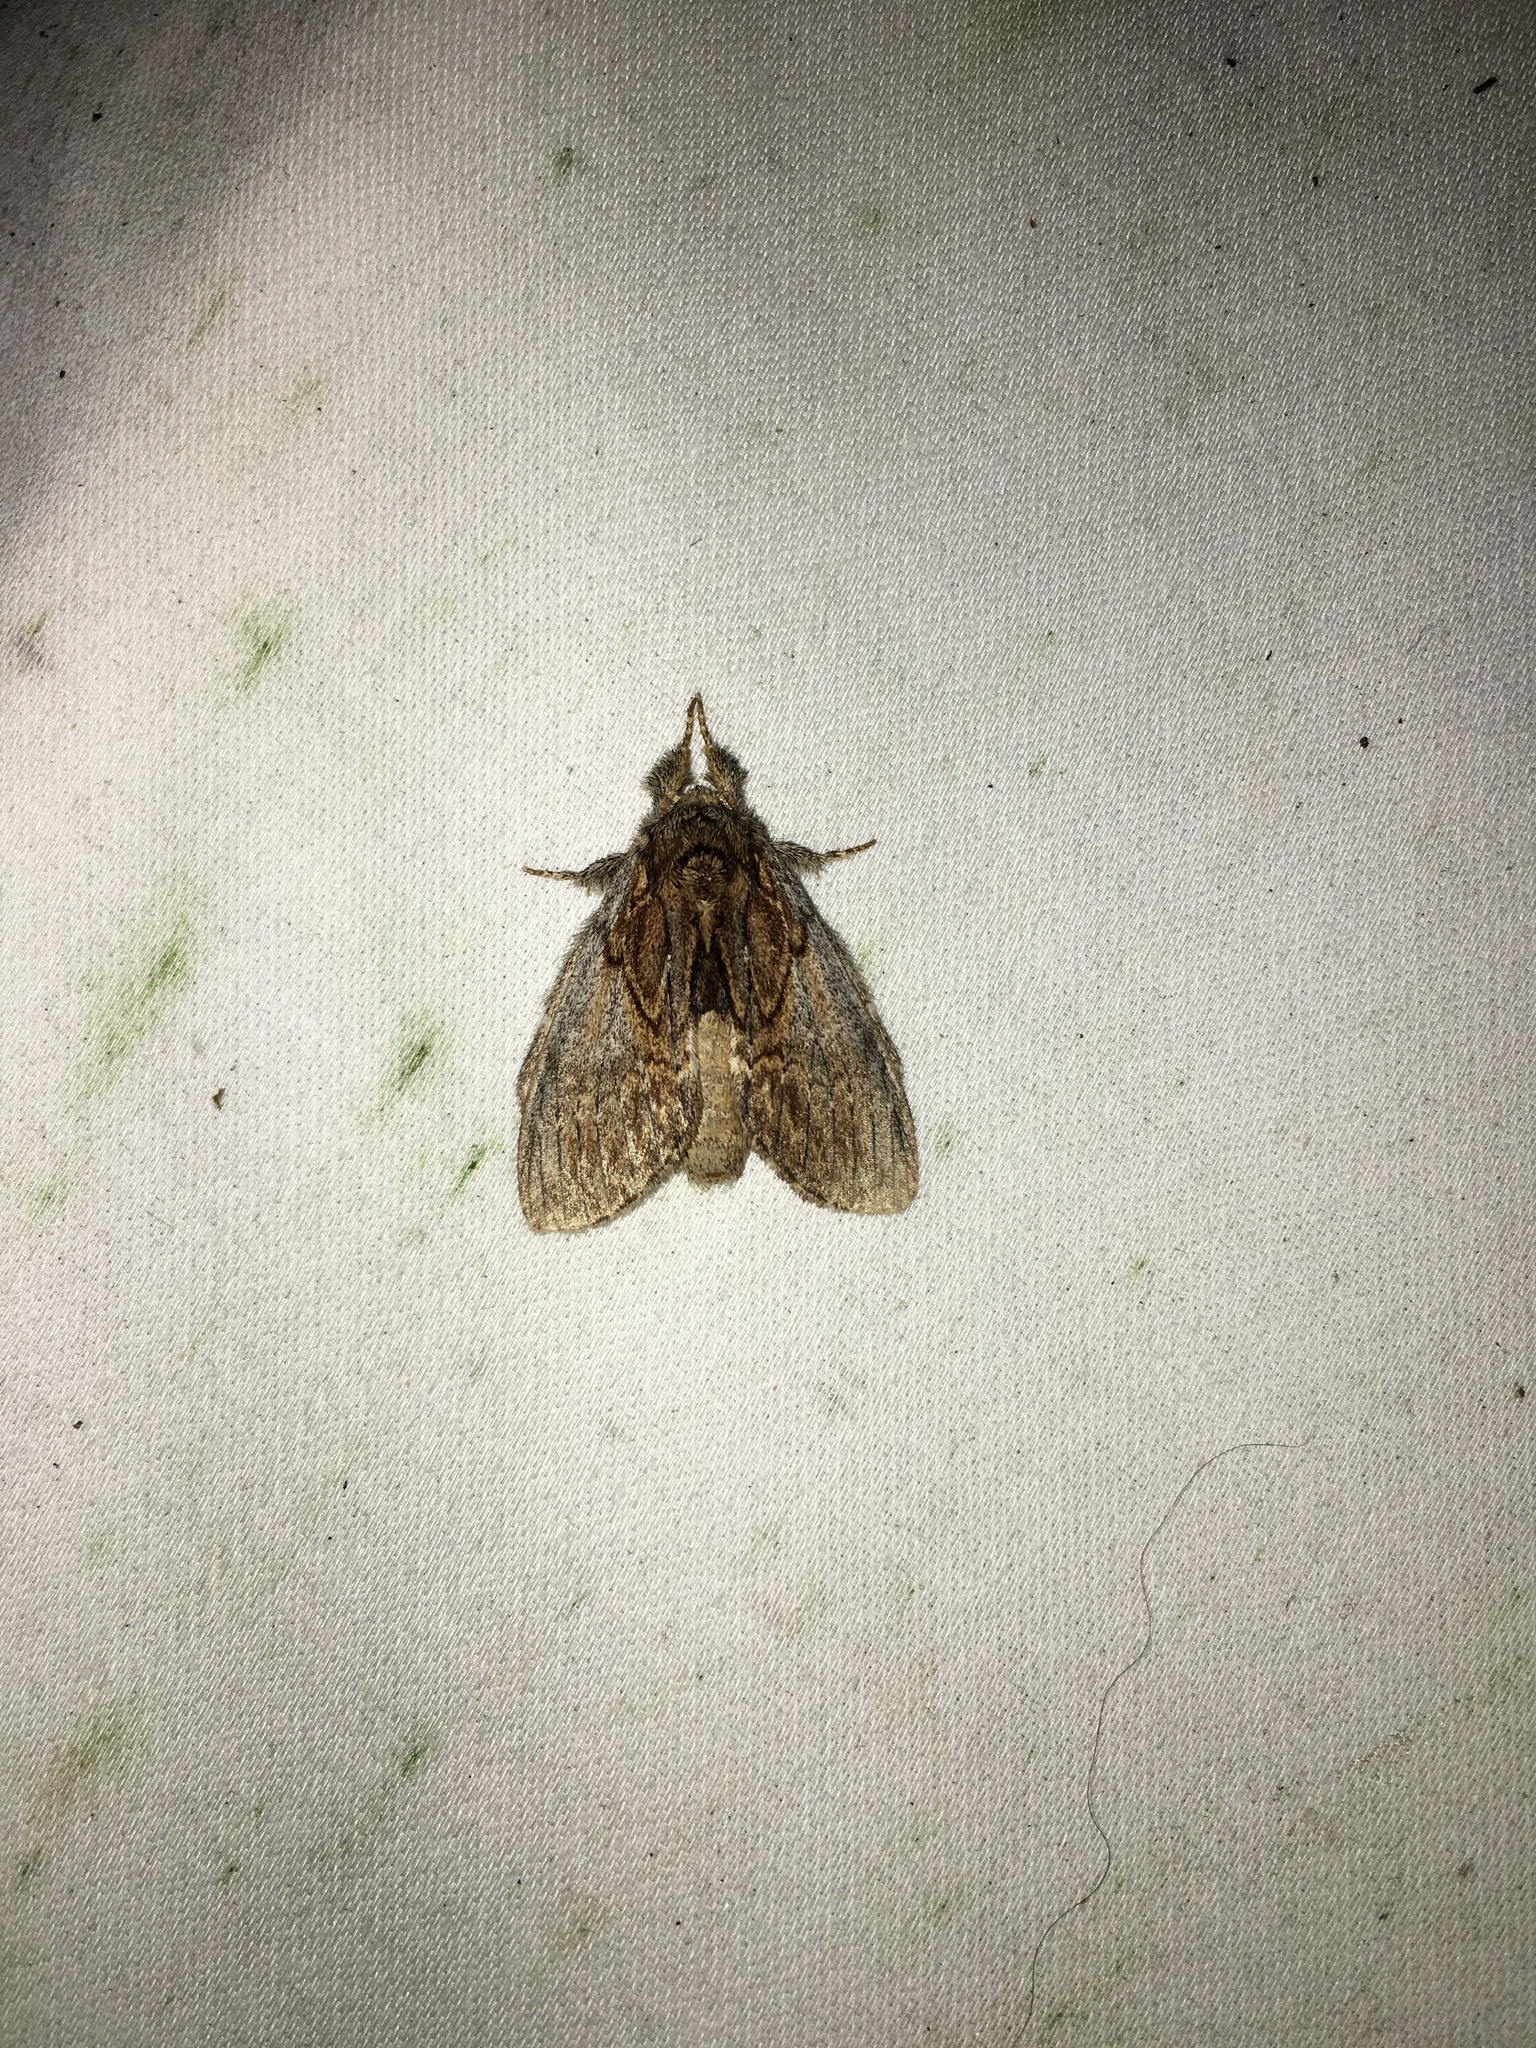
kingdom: Animalia
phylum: Arthropoda
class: Insecta
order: Lepidoptera
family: Notodontidae
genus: Peridea
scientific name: Peridea basitriens
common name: Oval-based prominent
